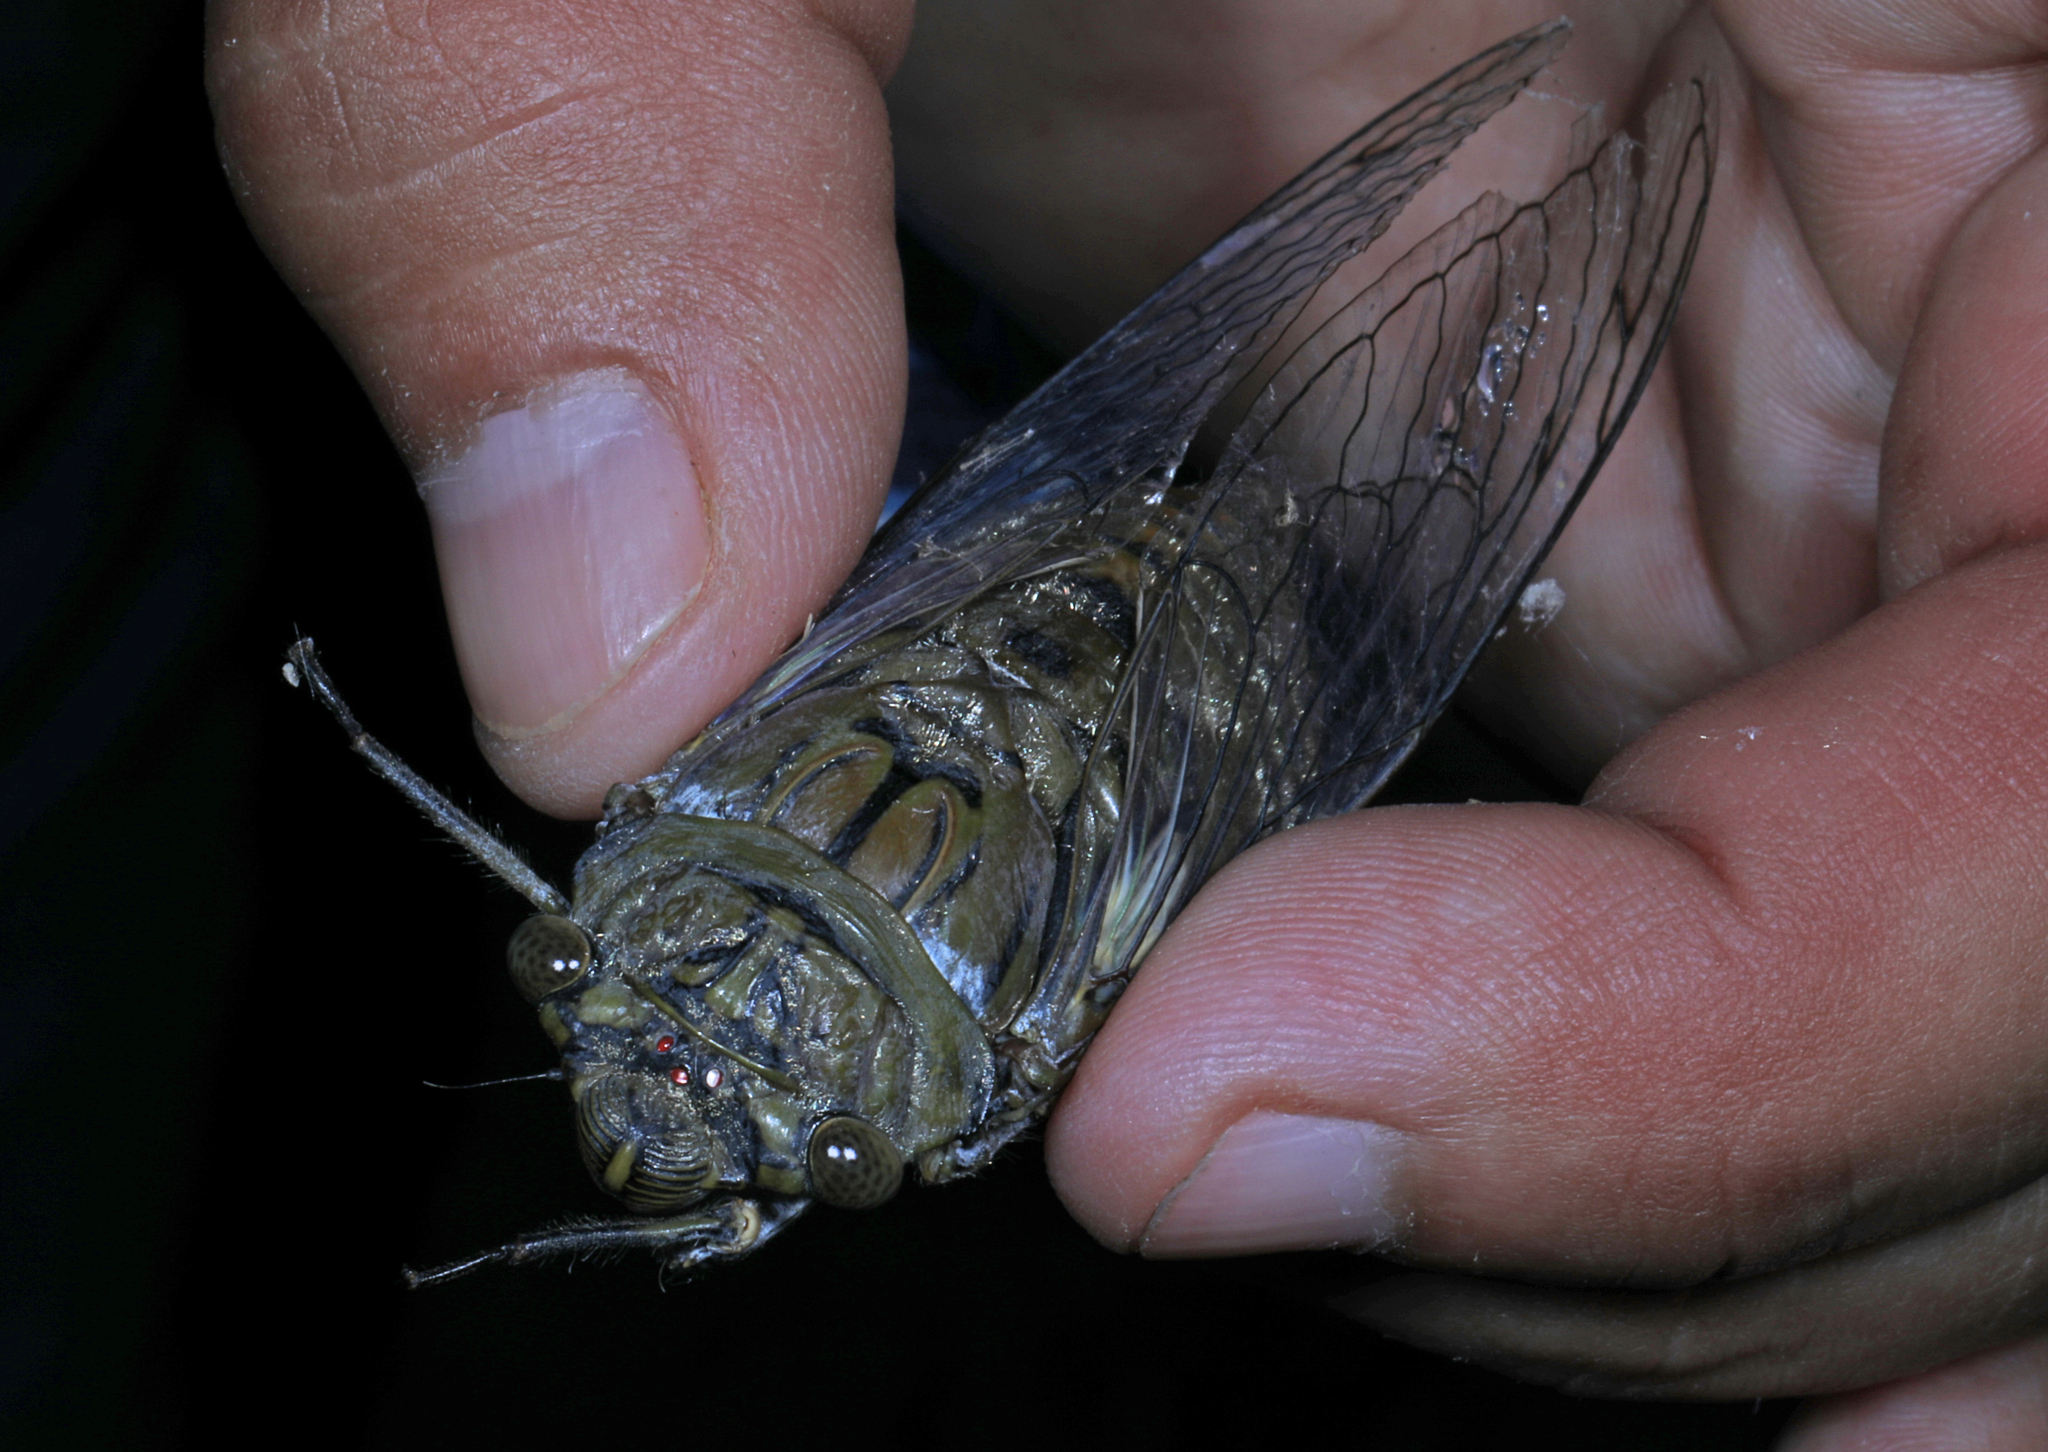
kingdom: Animalia
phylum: Arthropoda
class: Insecta
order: Hemiptera
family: Cicadidae
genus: Quesada
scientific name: Quesada gigas
